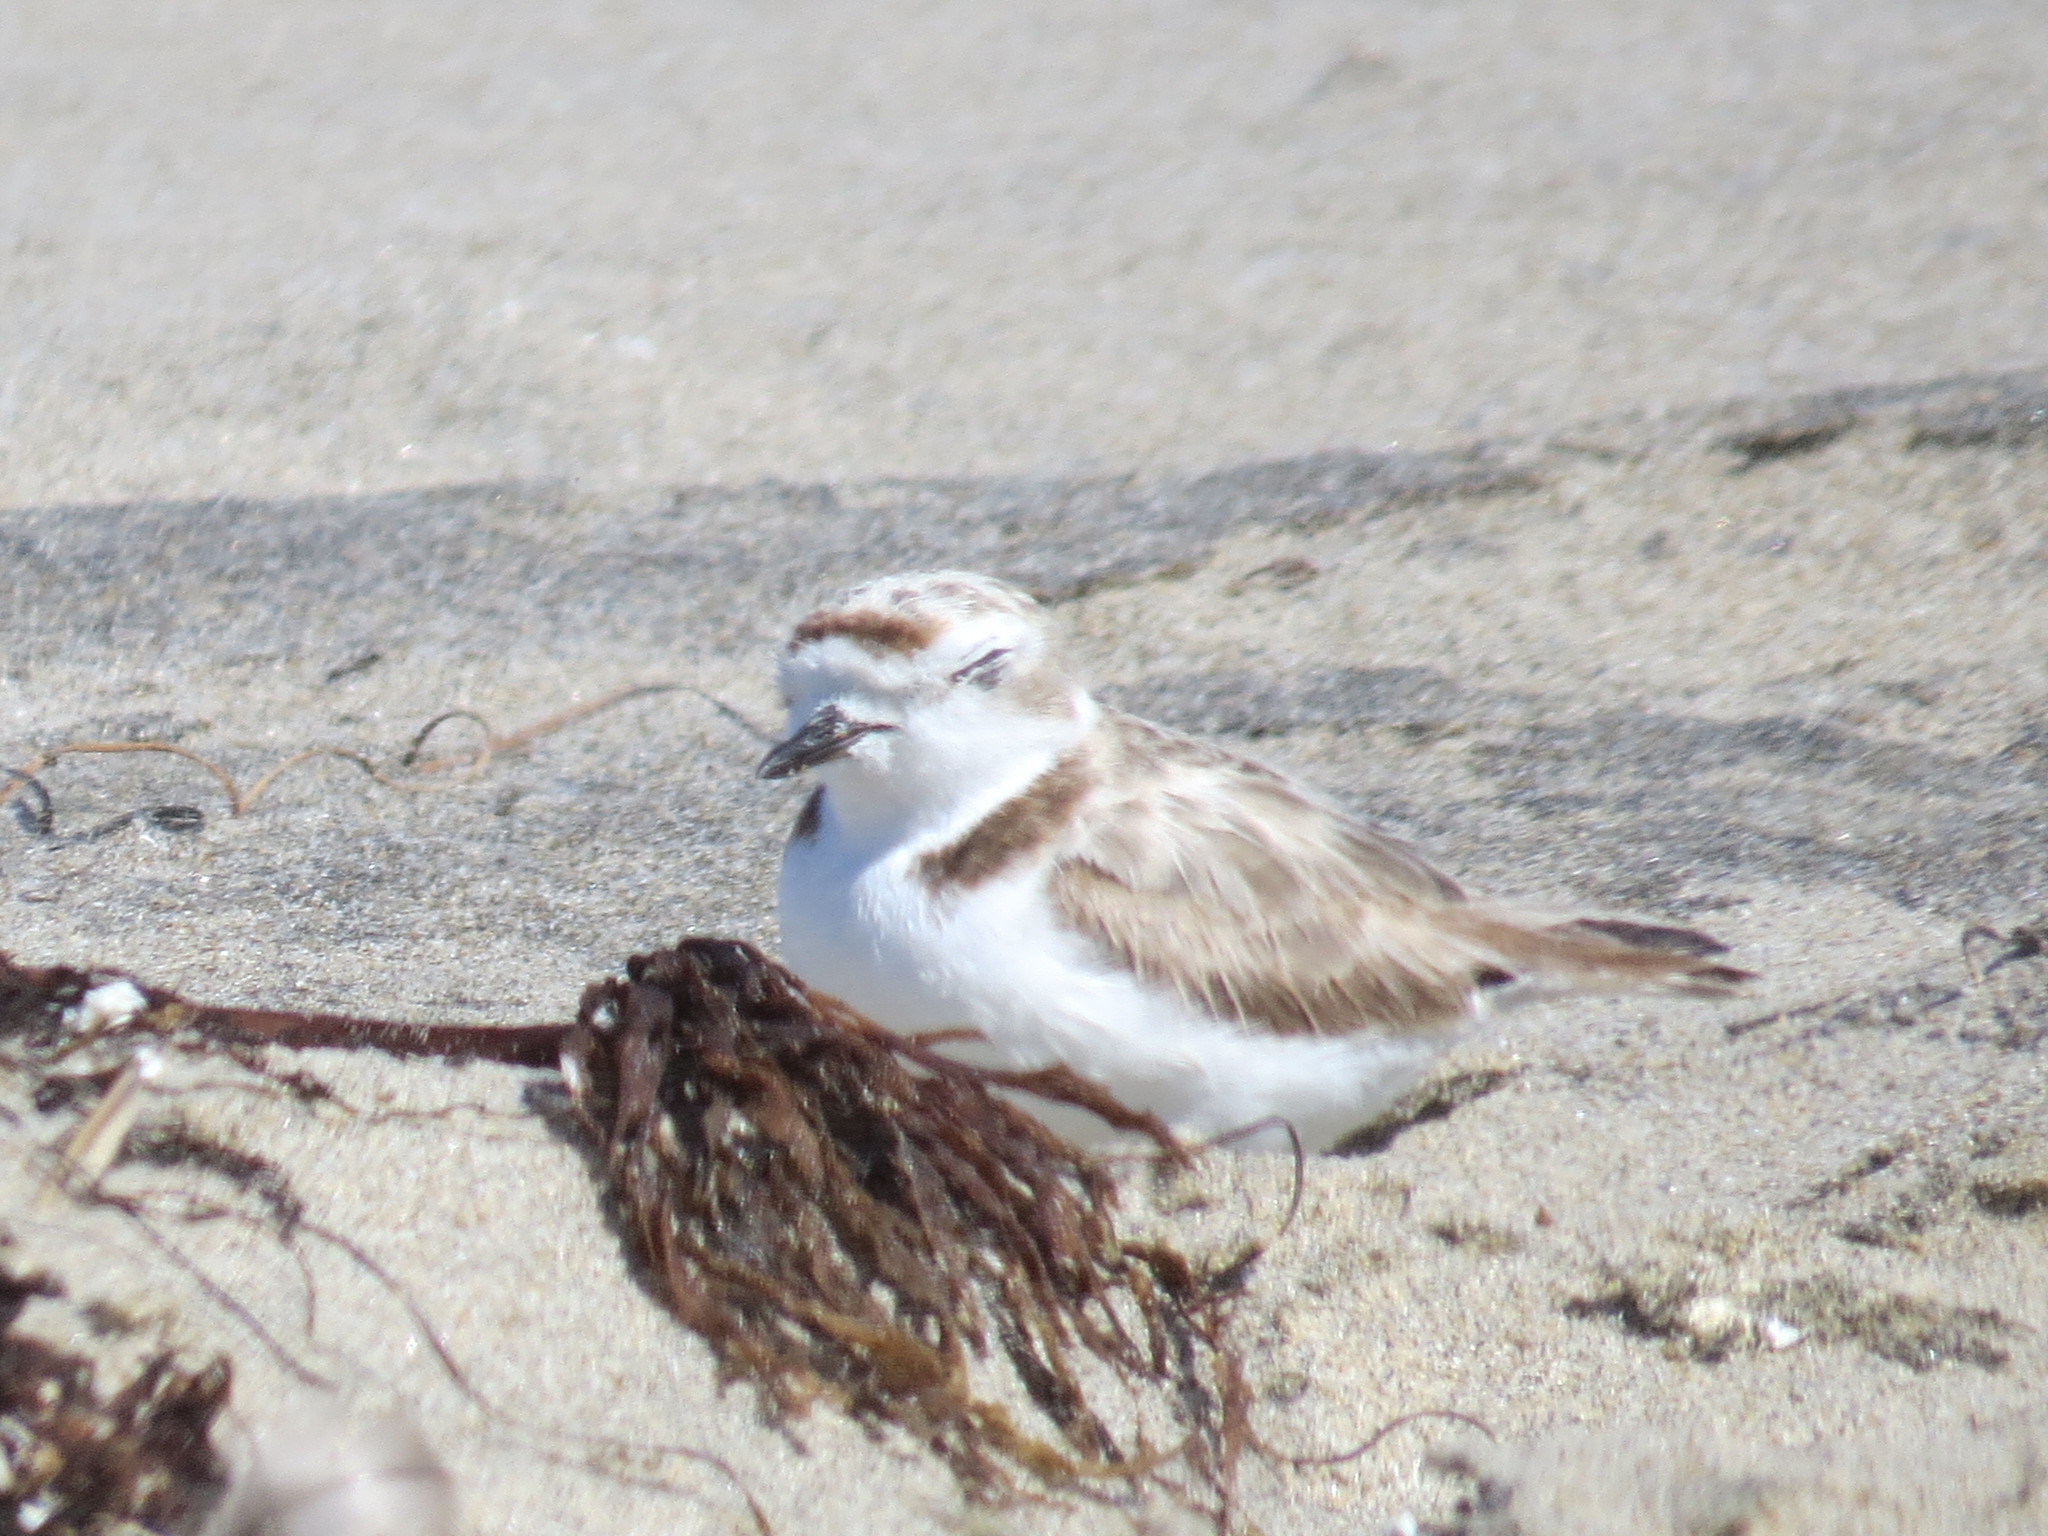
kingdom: Animalia
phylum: Chordata
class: Aves
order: Charadriiformes
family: Charadriidae
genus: Anarhynchus
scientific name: Anarhynchus
